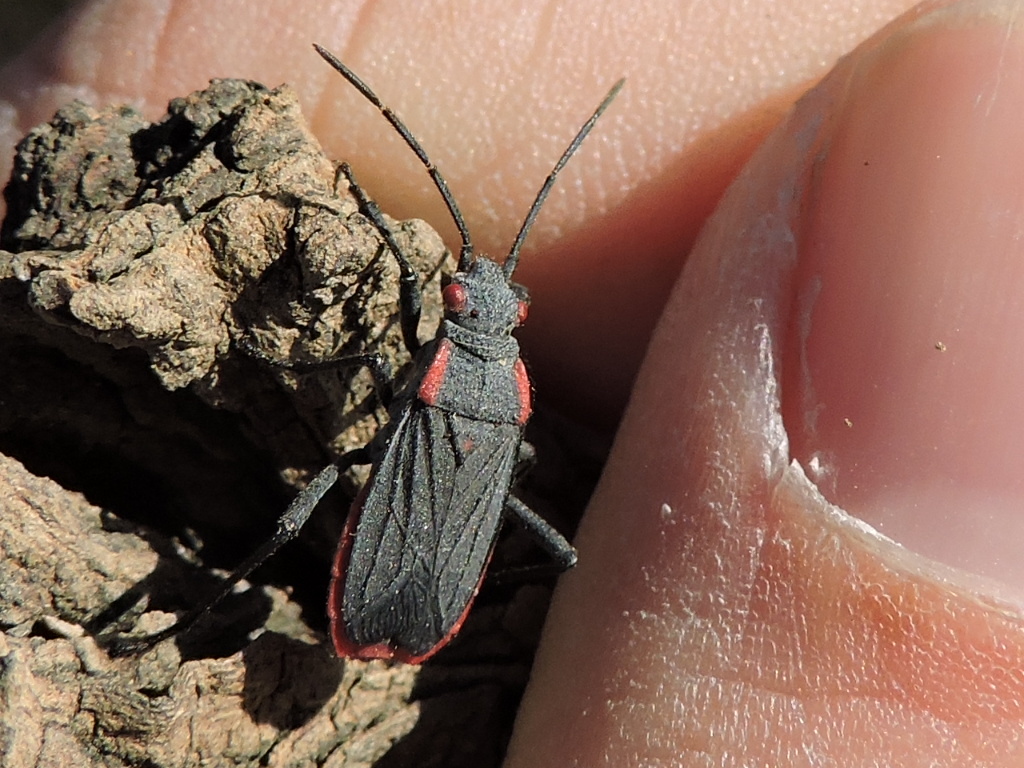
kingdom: Animalia
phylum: Arthropoda
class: Insecta
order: Hemiptera
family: Rhopalidae
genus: Jadera
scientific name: Jadera haematoloma
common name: Red-shouldered bug
